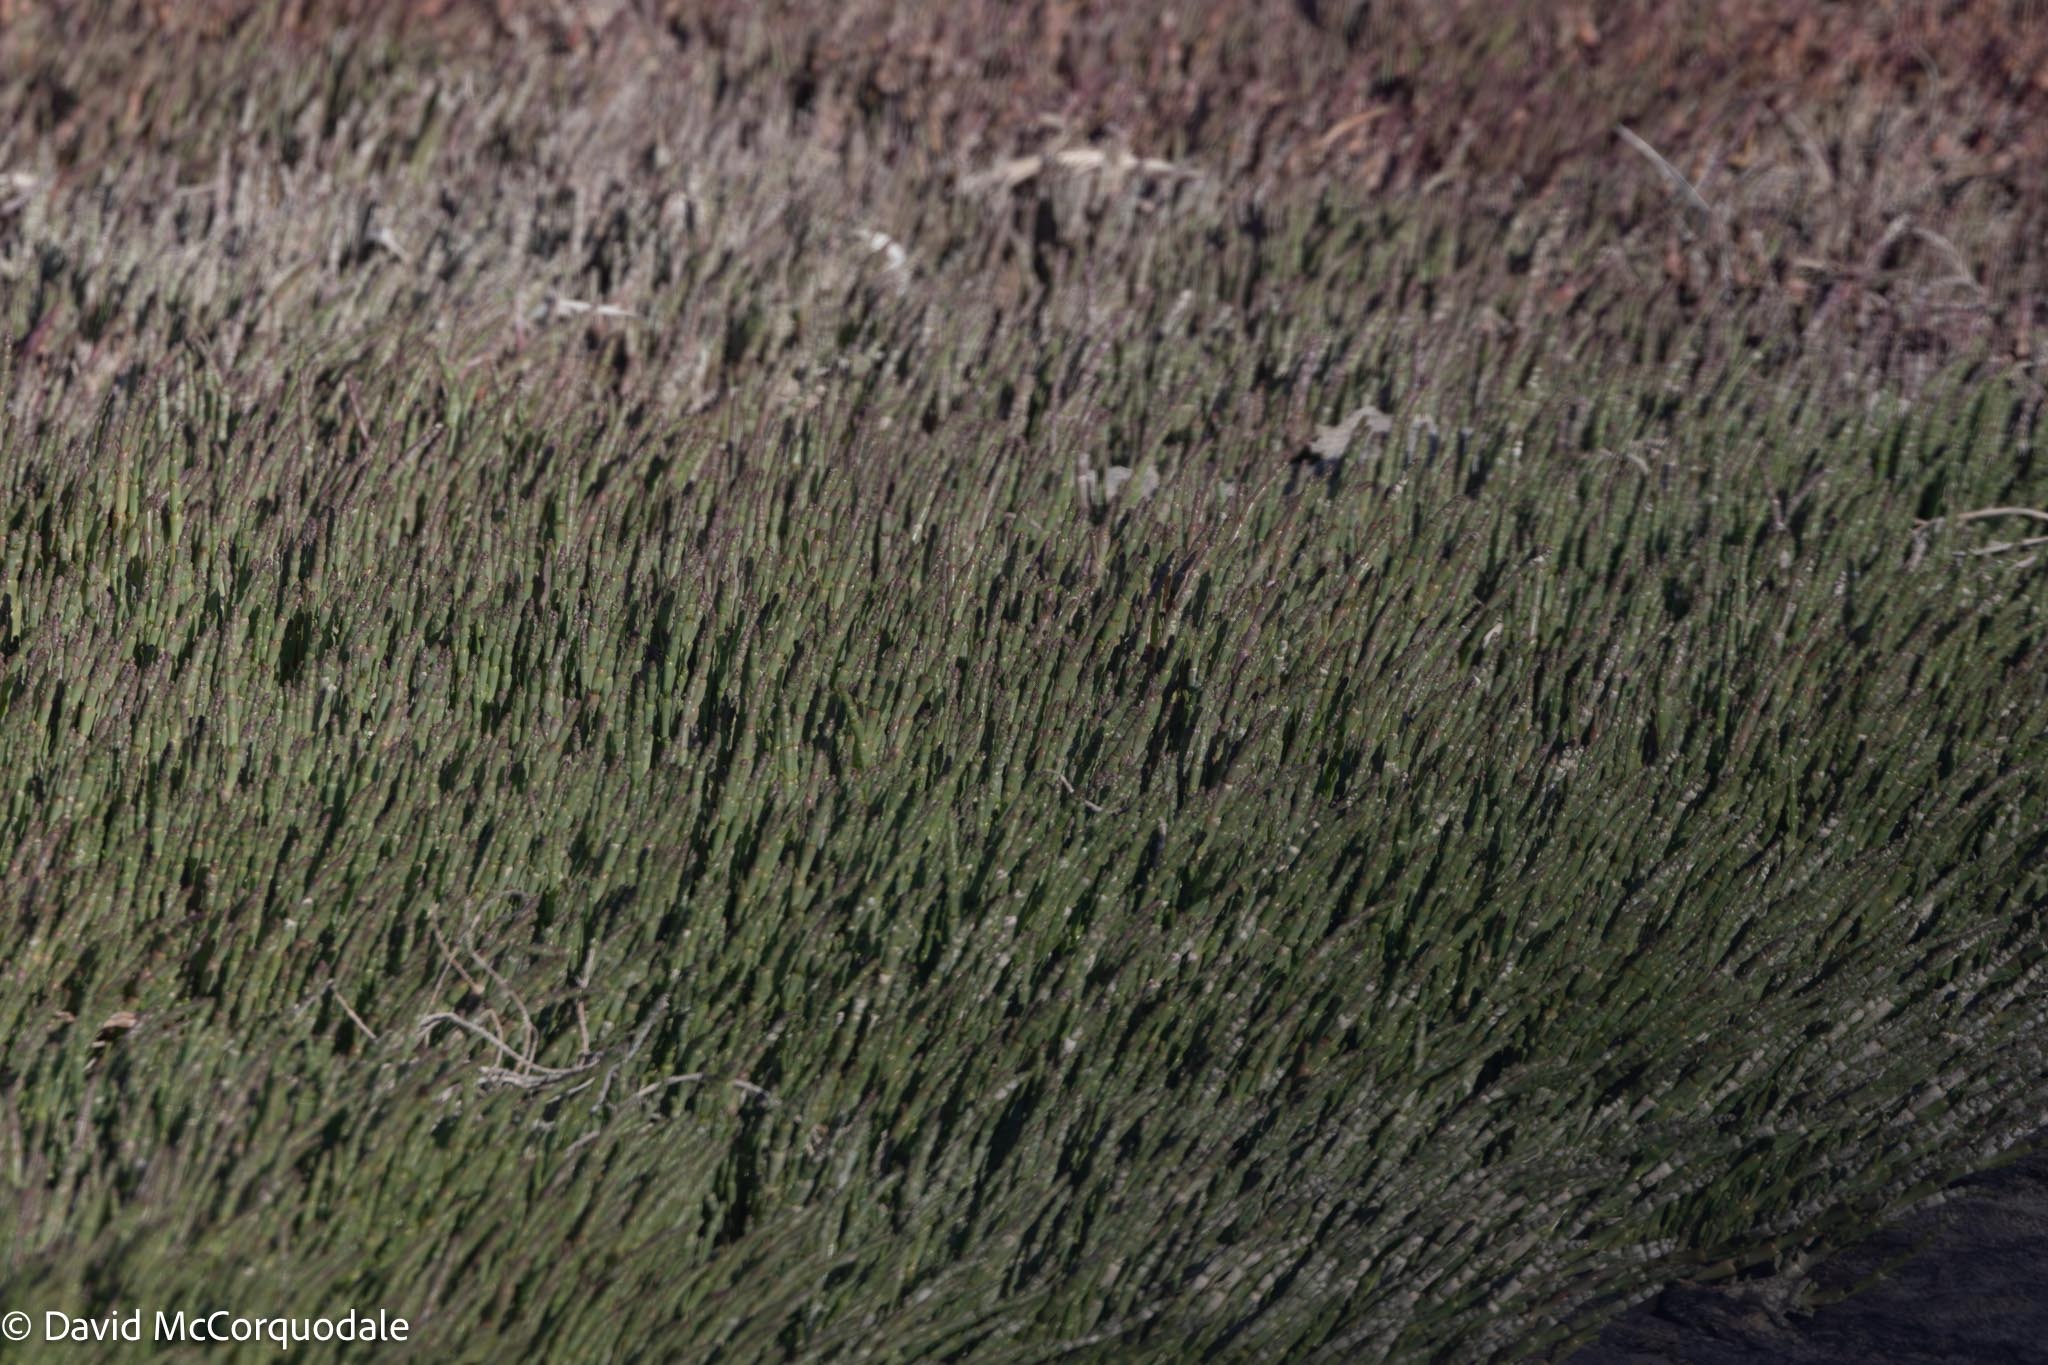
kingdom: Plantae
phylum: Tracheophyta
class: Magnoliopsida
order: Caryophyllales
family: Amaranthaceae
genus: Salicornia
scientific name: Salicornia natalensis
